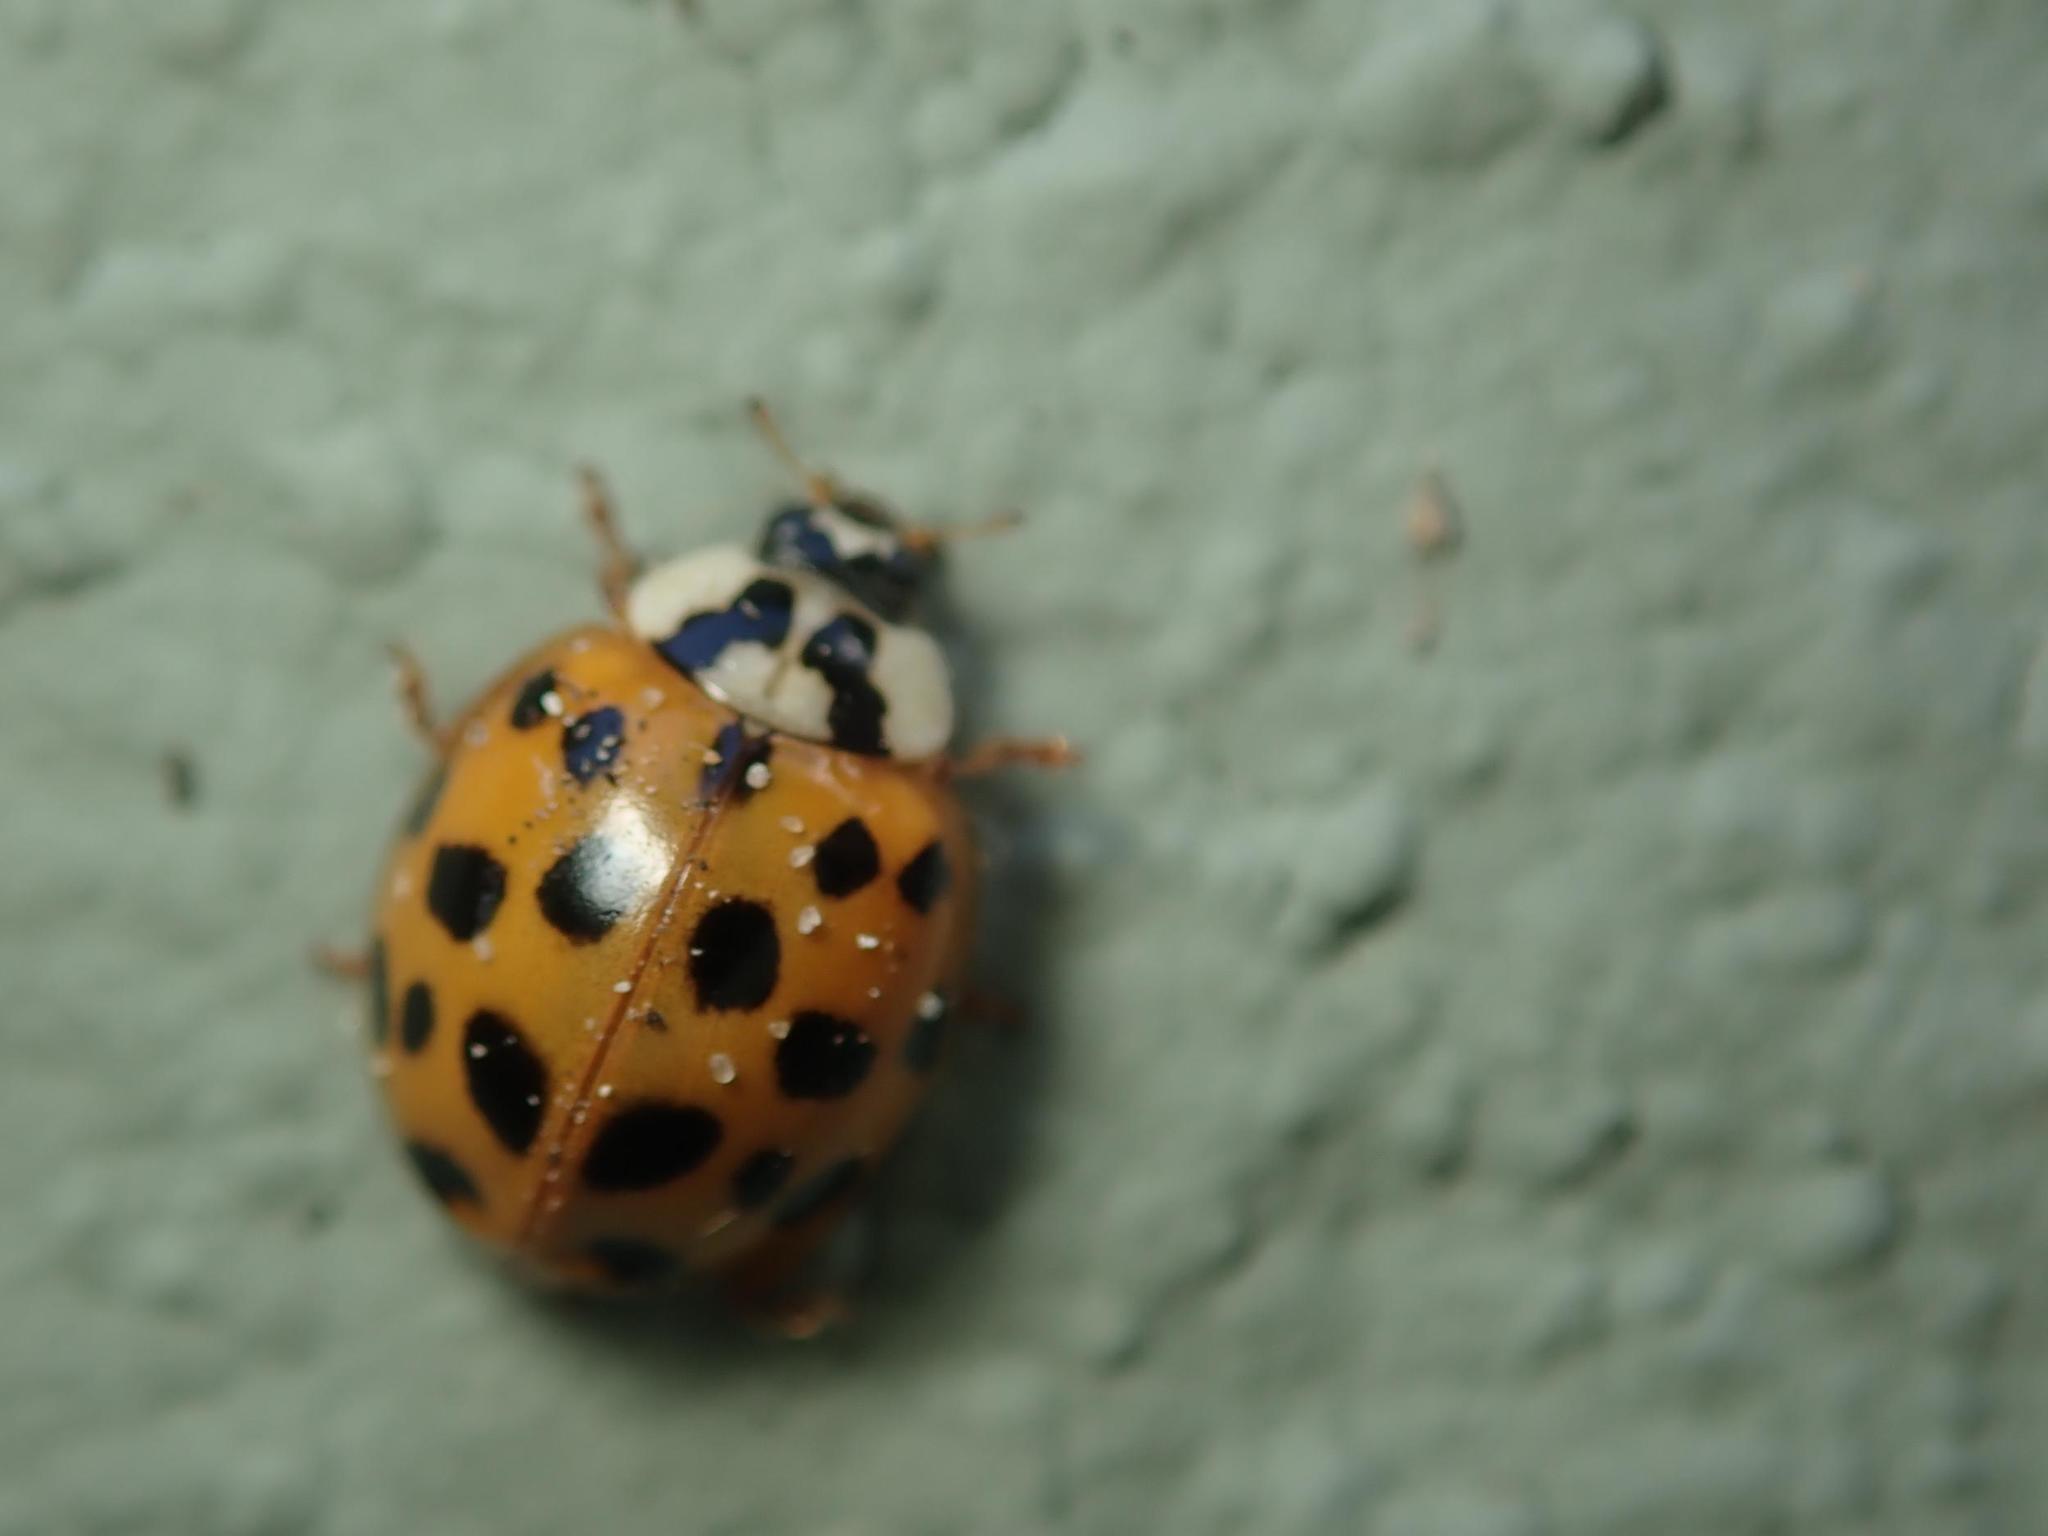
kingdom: Animalia
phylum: Arthropoda
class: Insecta
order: Coleoptera
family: Coccinellidae
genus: Harmonia
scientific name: Harmonia axyridis
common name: Harlequin ladybird
